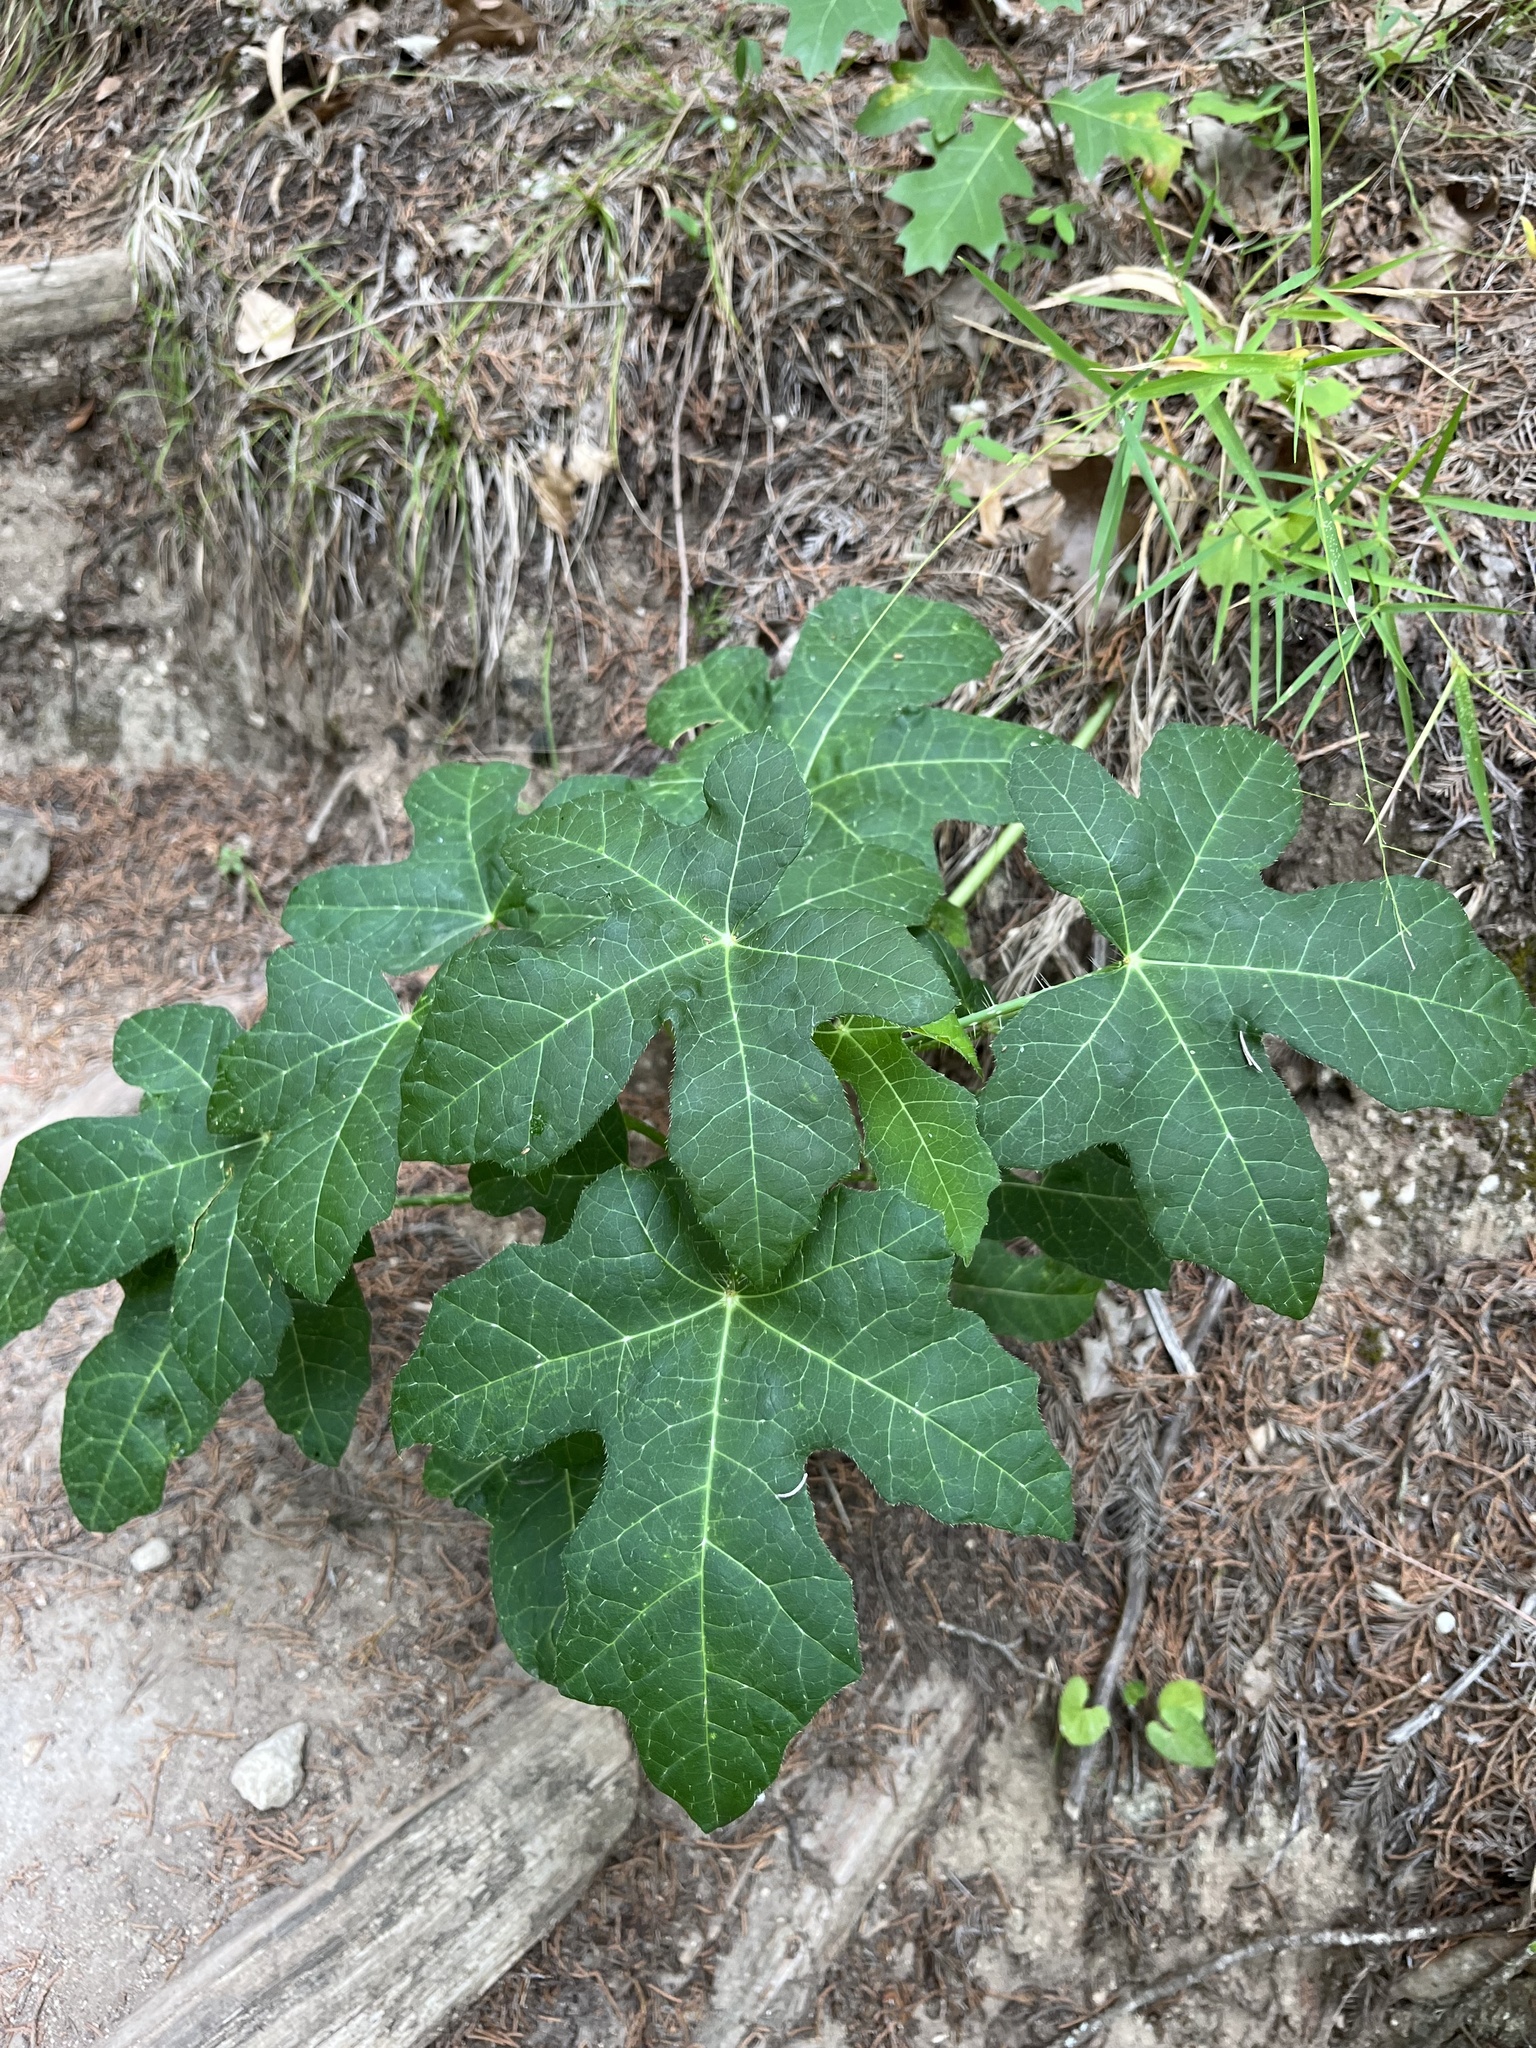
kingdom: Plantae
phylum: Tracheophyta
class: Magnoliopsida
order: Malpighiales
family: Euphorbiaceae
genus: Cnidoscolus
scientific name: Cnidoscolus texanus
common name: Texas bull-nettle
